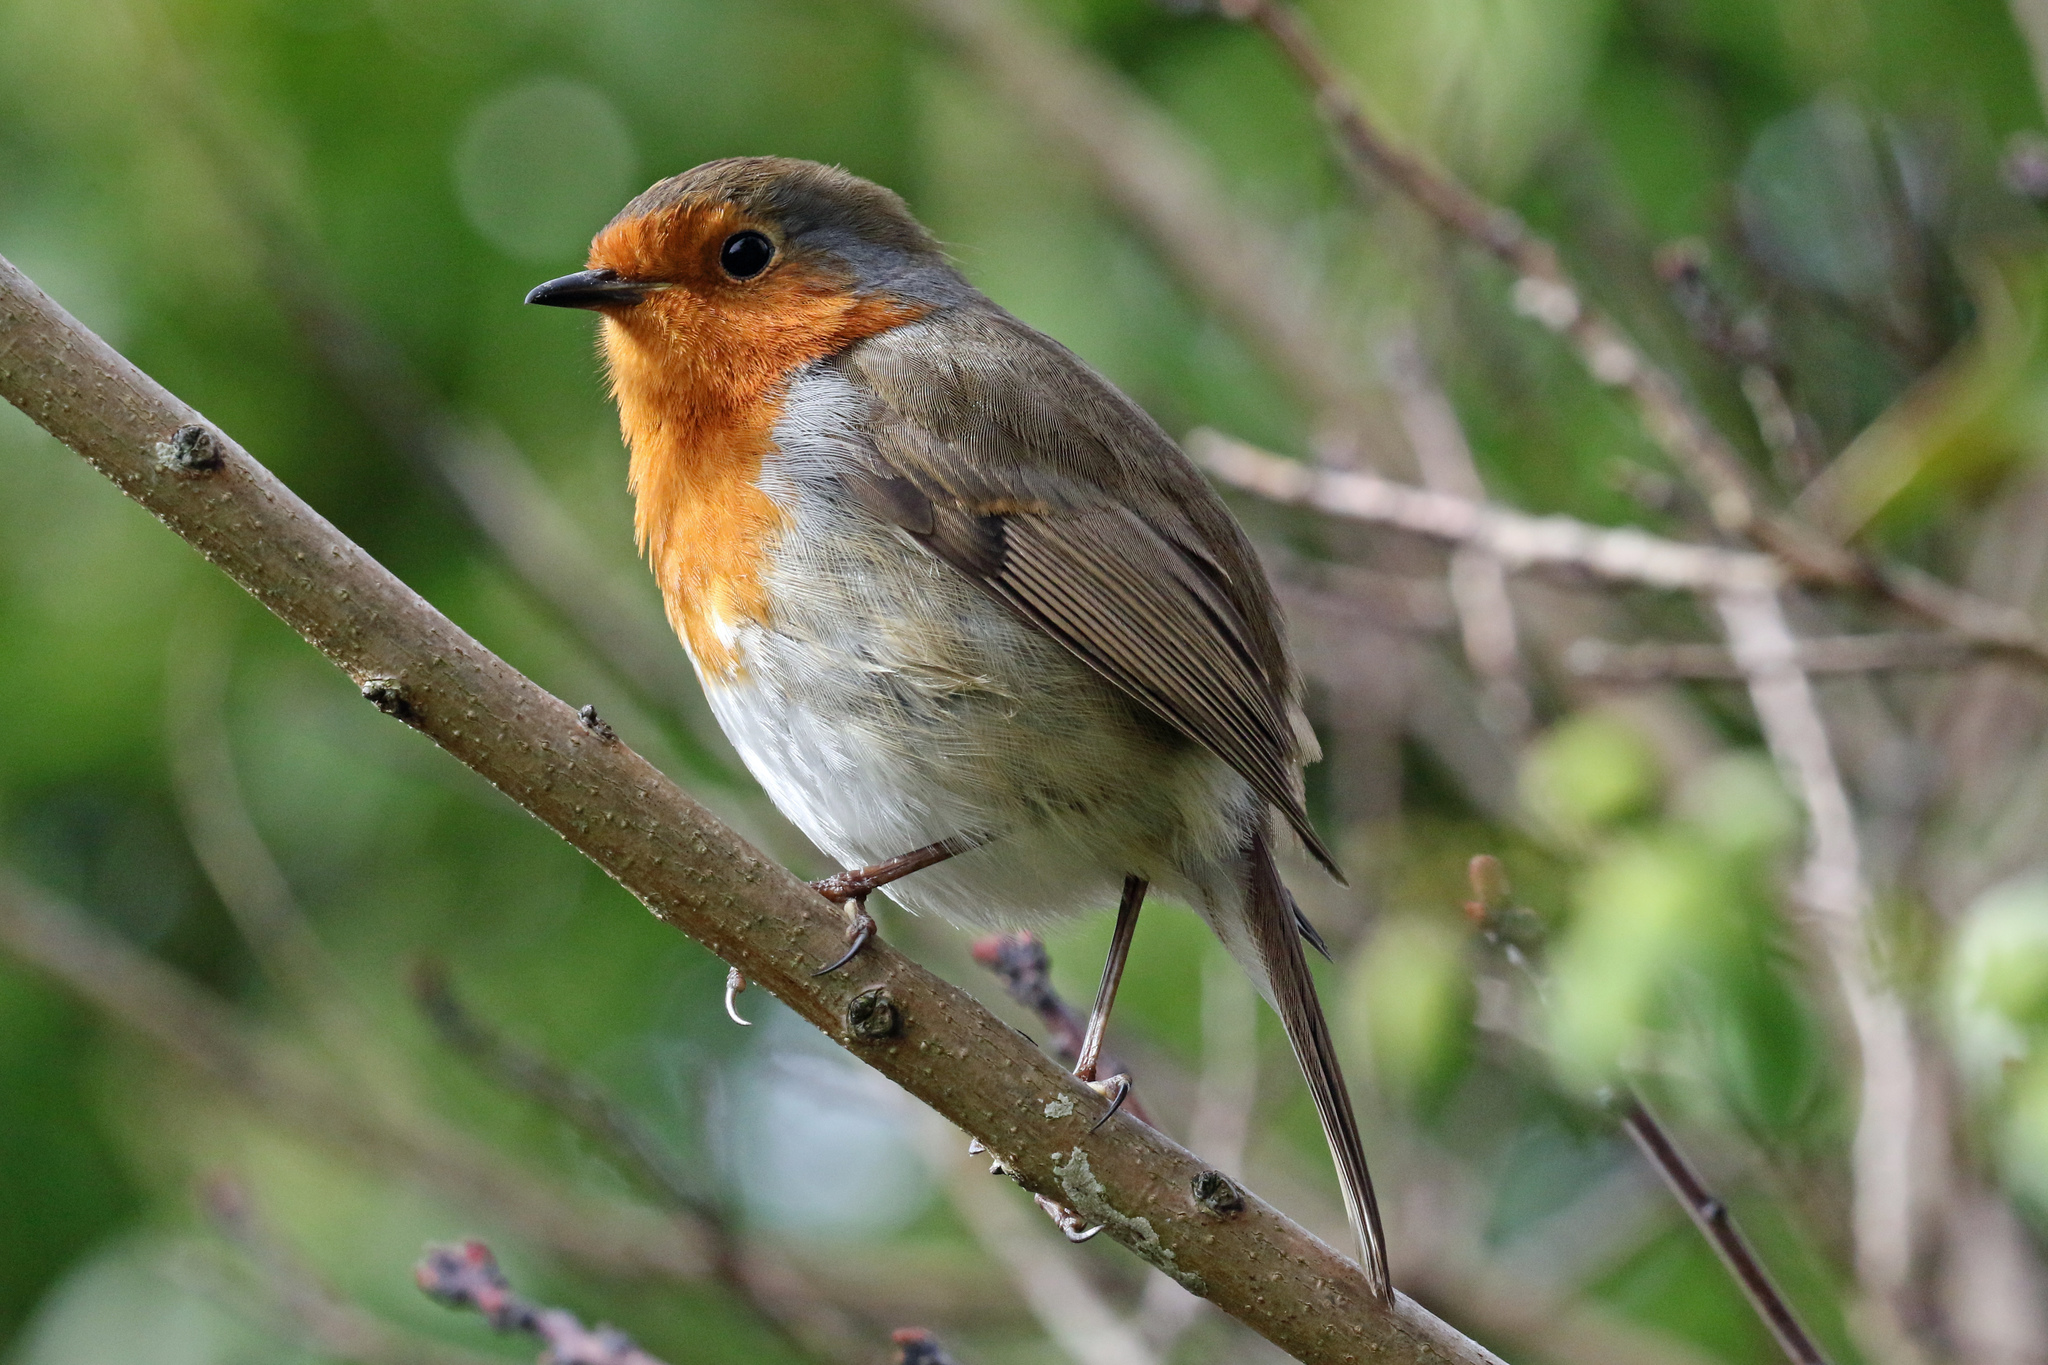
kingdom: Animalia
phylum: Chordata
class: Aves
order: Passeriformes
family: Muscicapidae
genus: Erithacus
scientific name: Erithacus rubecula
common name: European robin
